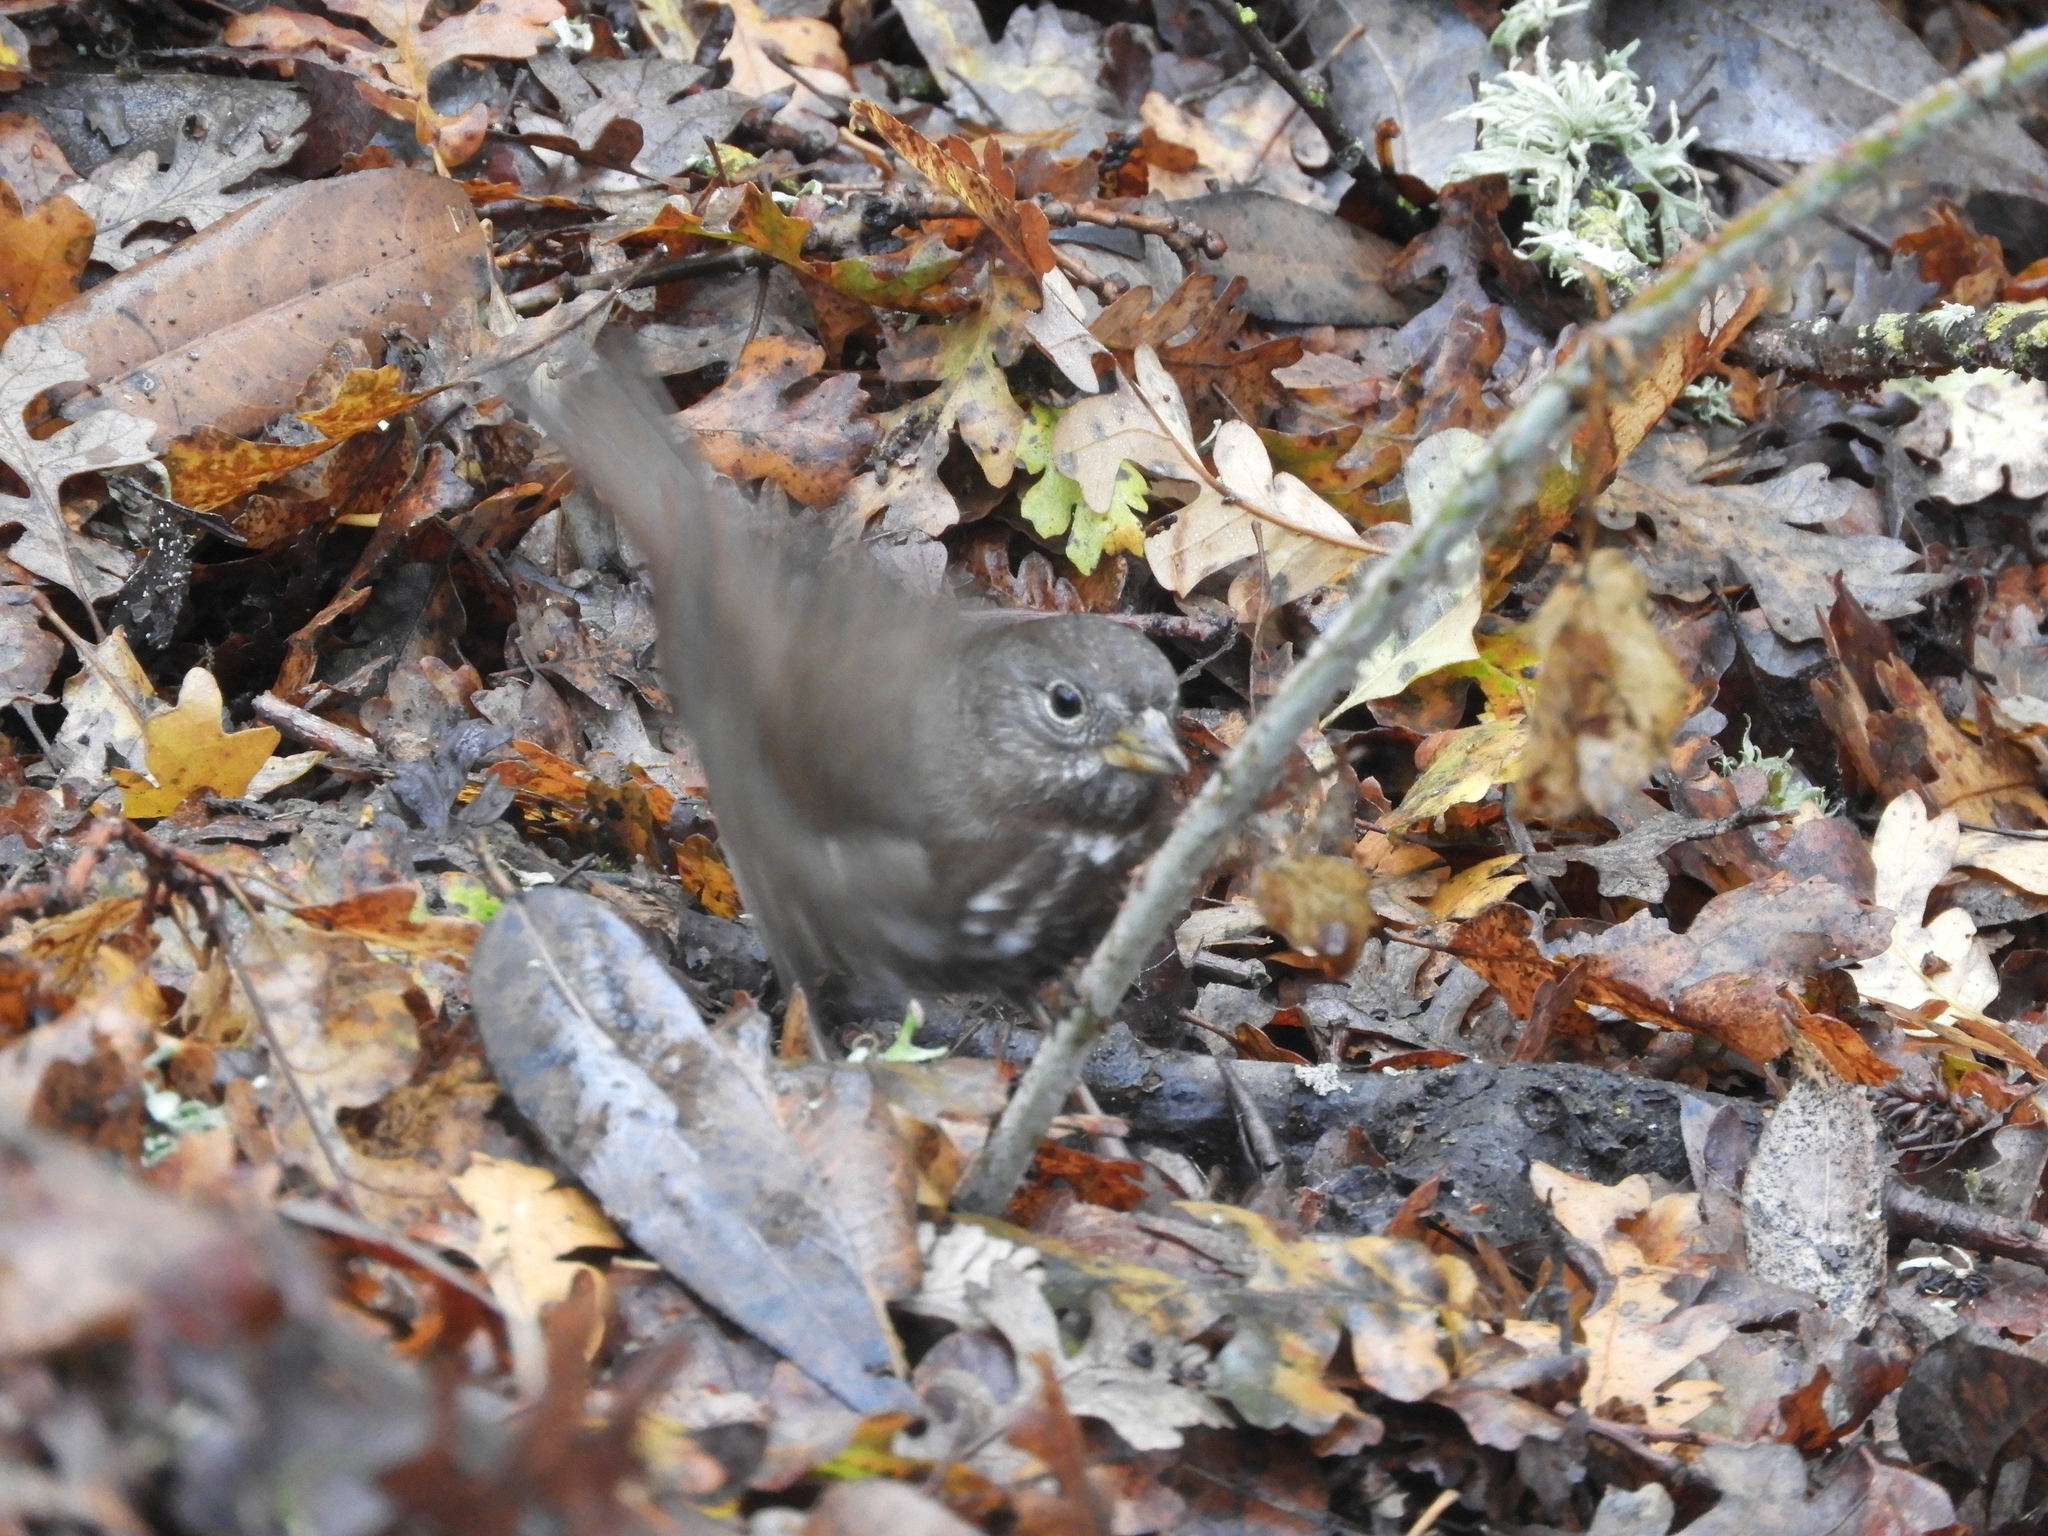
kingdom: Animalia
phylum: Chordata
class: Aves
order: Passeriformes
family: Passerellidae
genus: Passerella
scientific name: Passerella iliaca
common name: Fox sparrow
